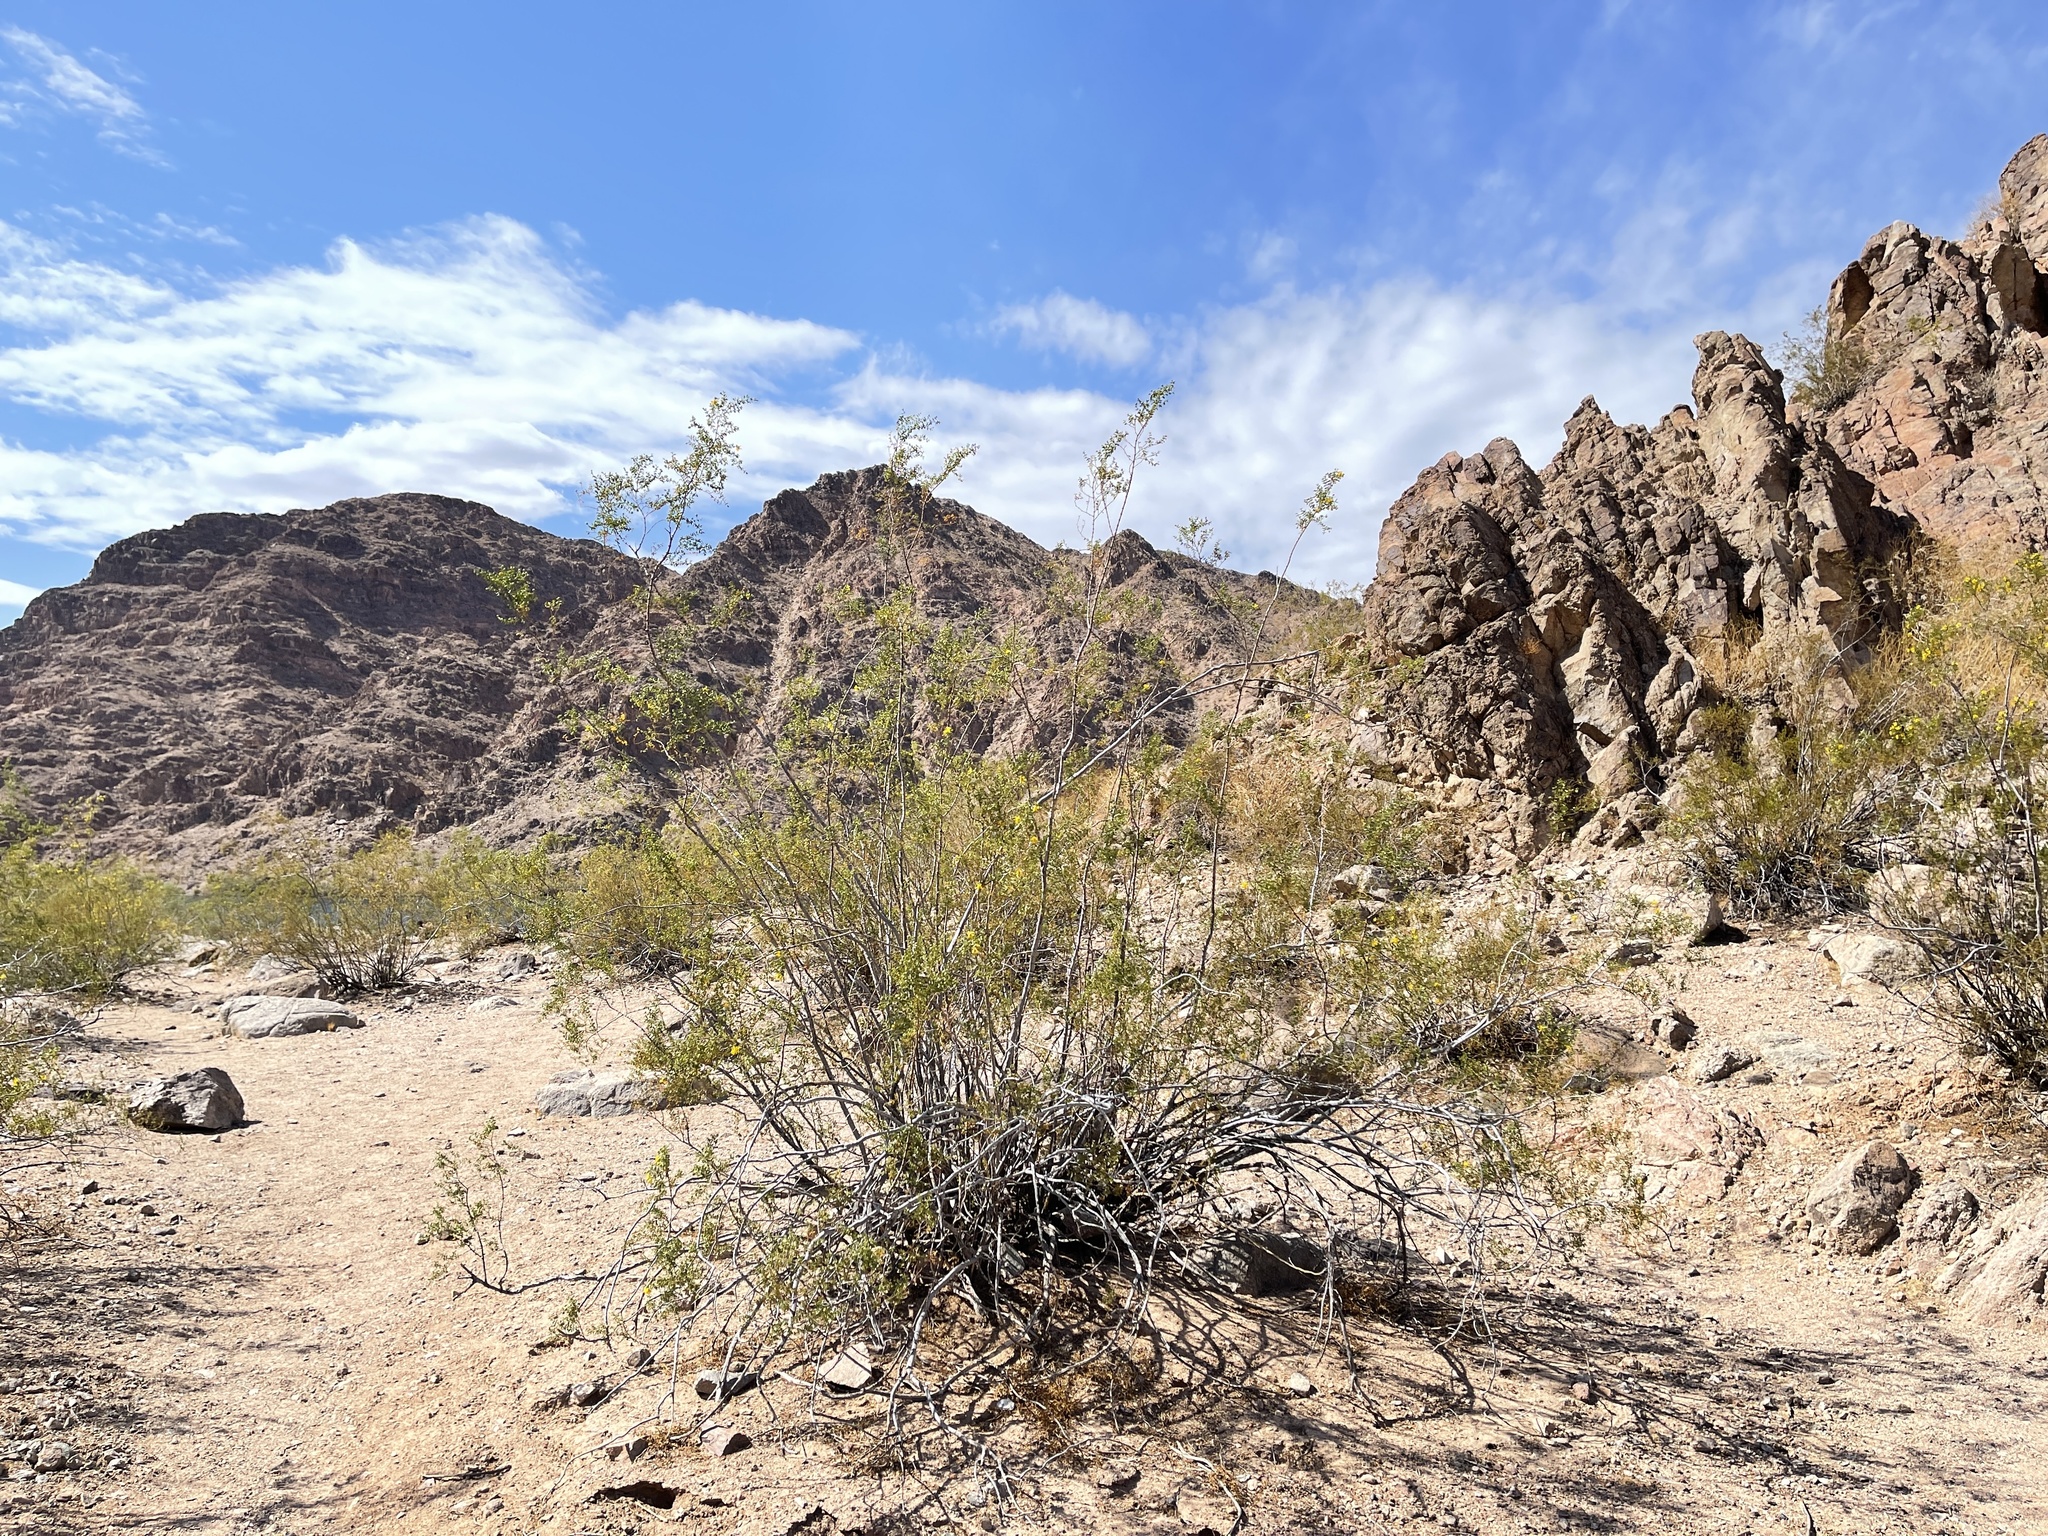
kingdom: Plantae
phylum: Tracheophyta
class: Magnoliopsida
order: Zygophyllales
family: Zygophyllaceae
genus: Larrea
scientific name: Larrea tridentata
